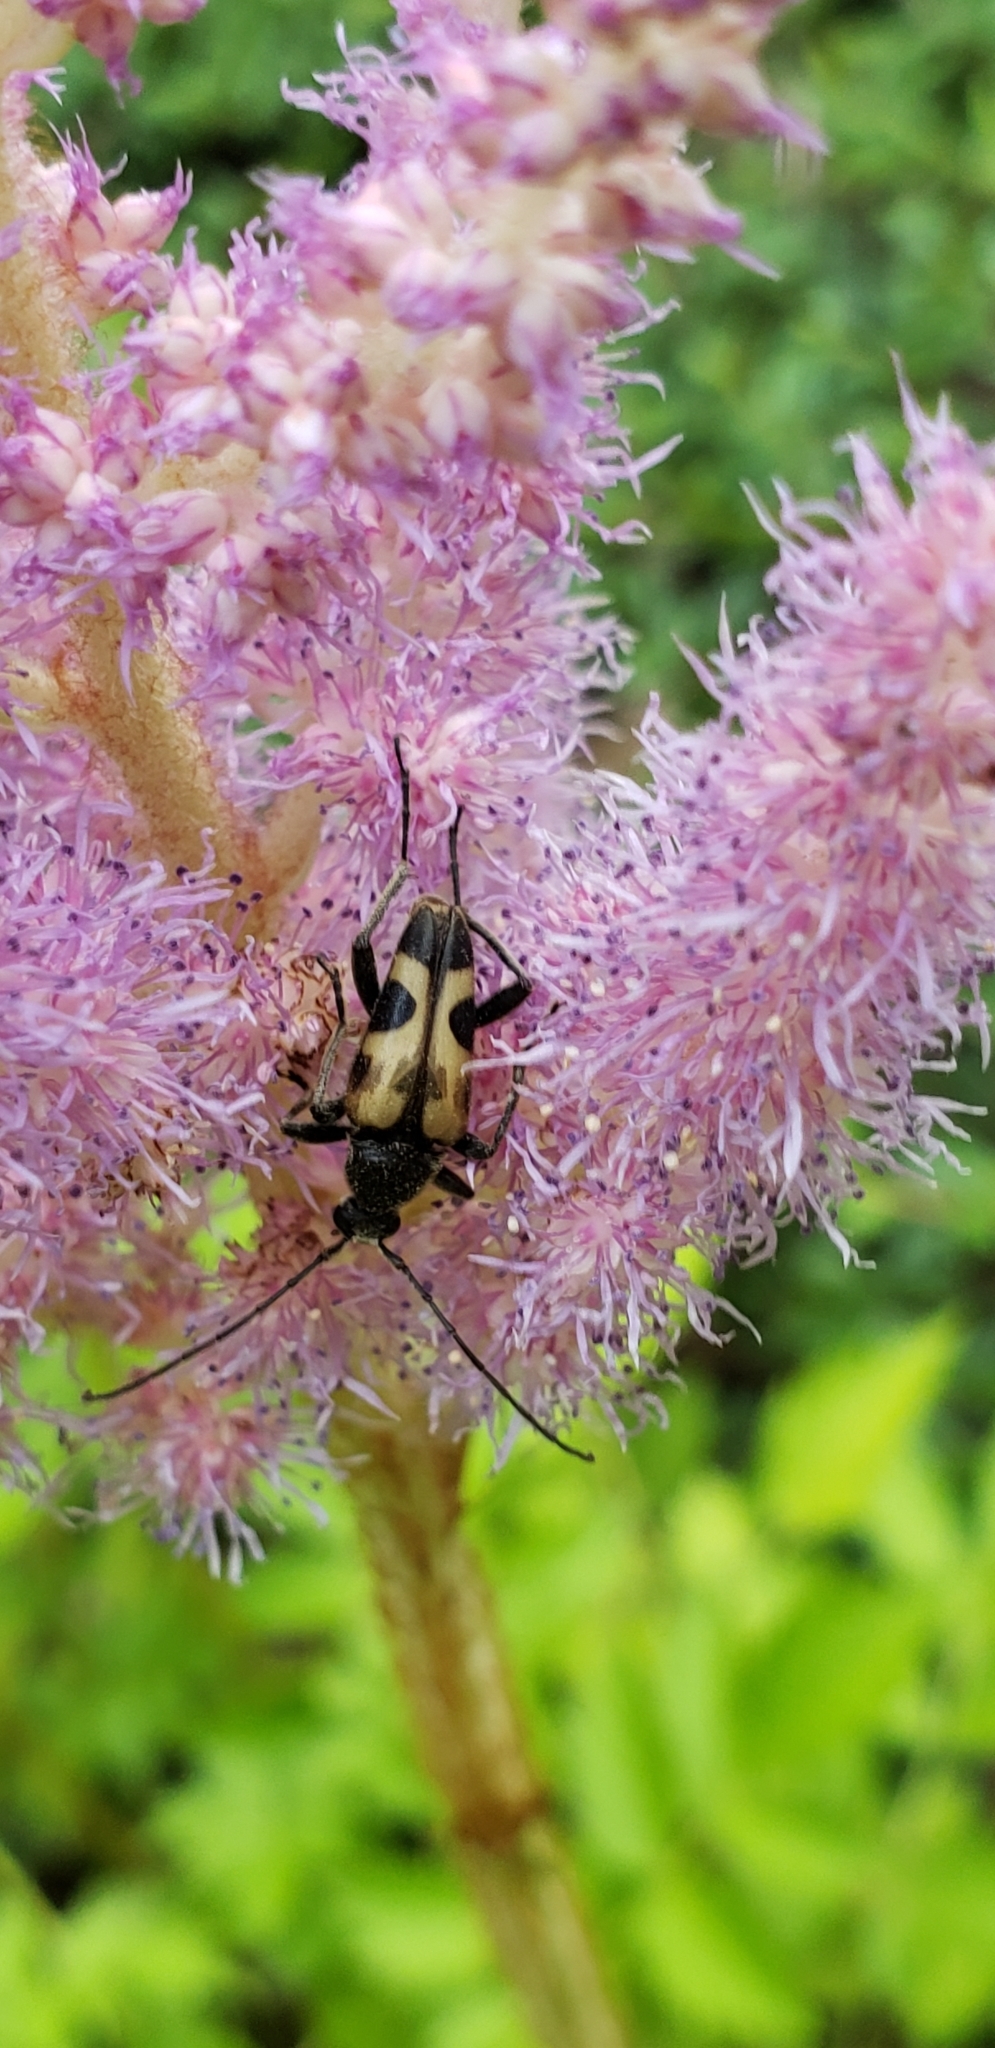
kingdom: Animalia
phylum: Arthropoda
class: Insecta
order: Coleoptera
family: Cerambycidae
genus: Judolia
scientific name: Judolia cordifera
